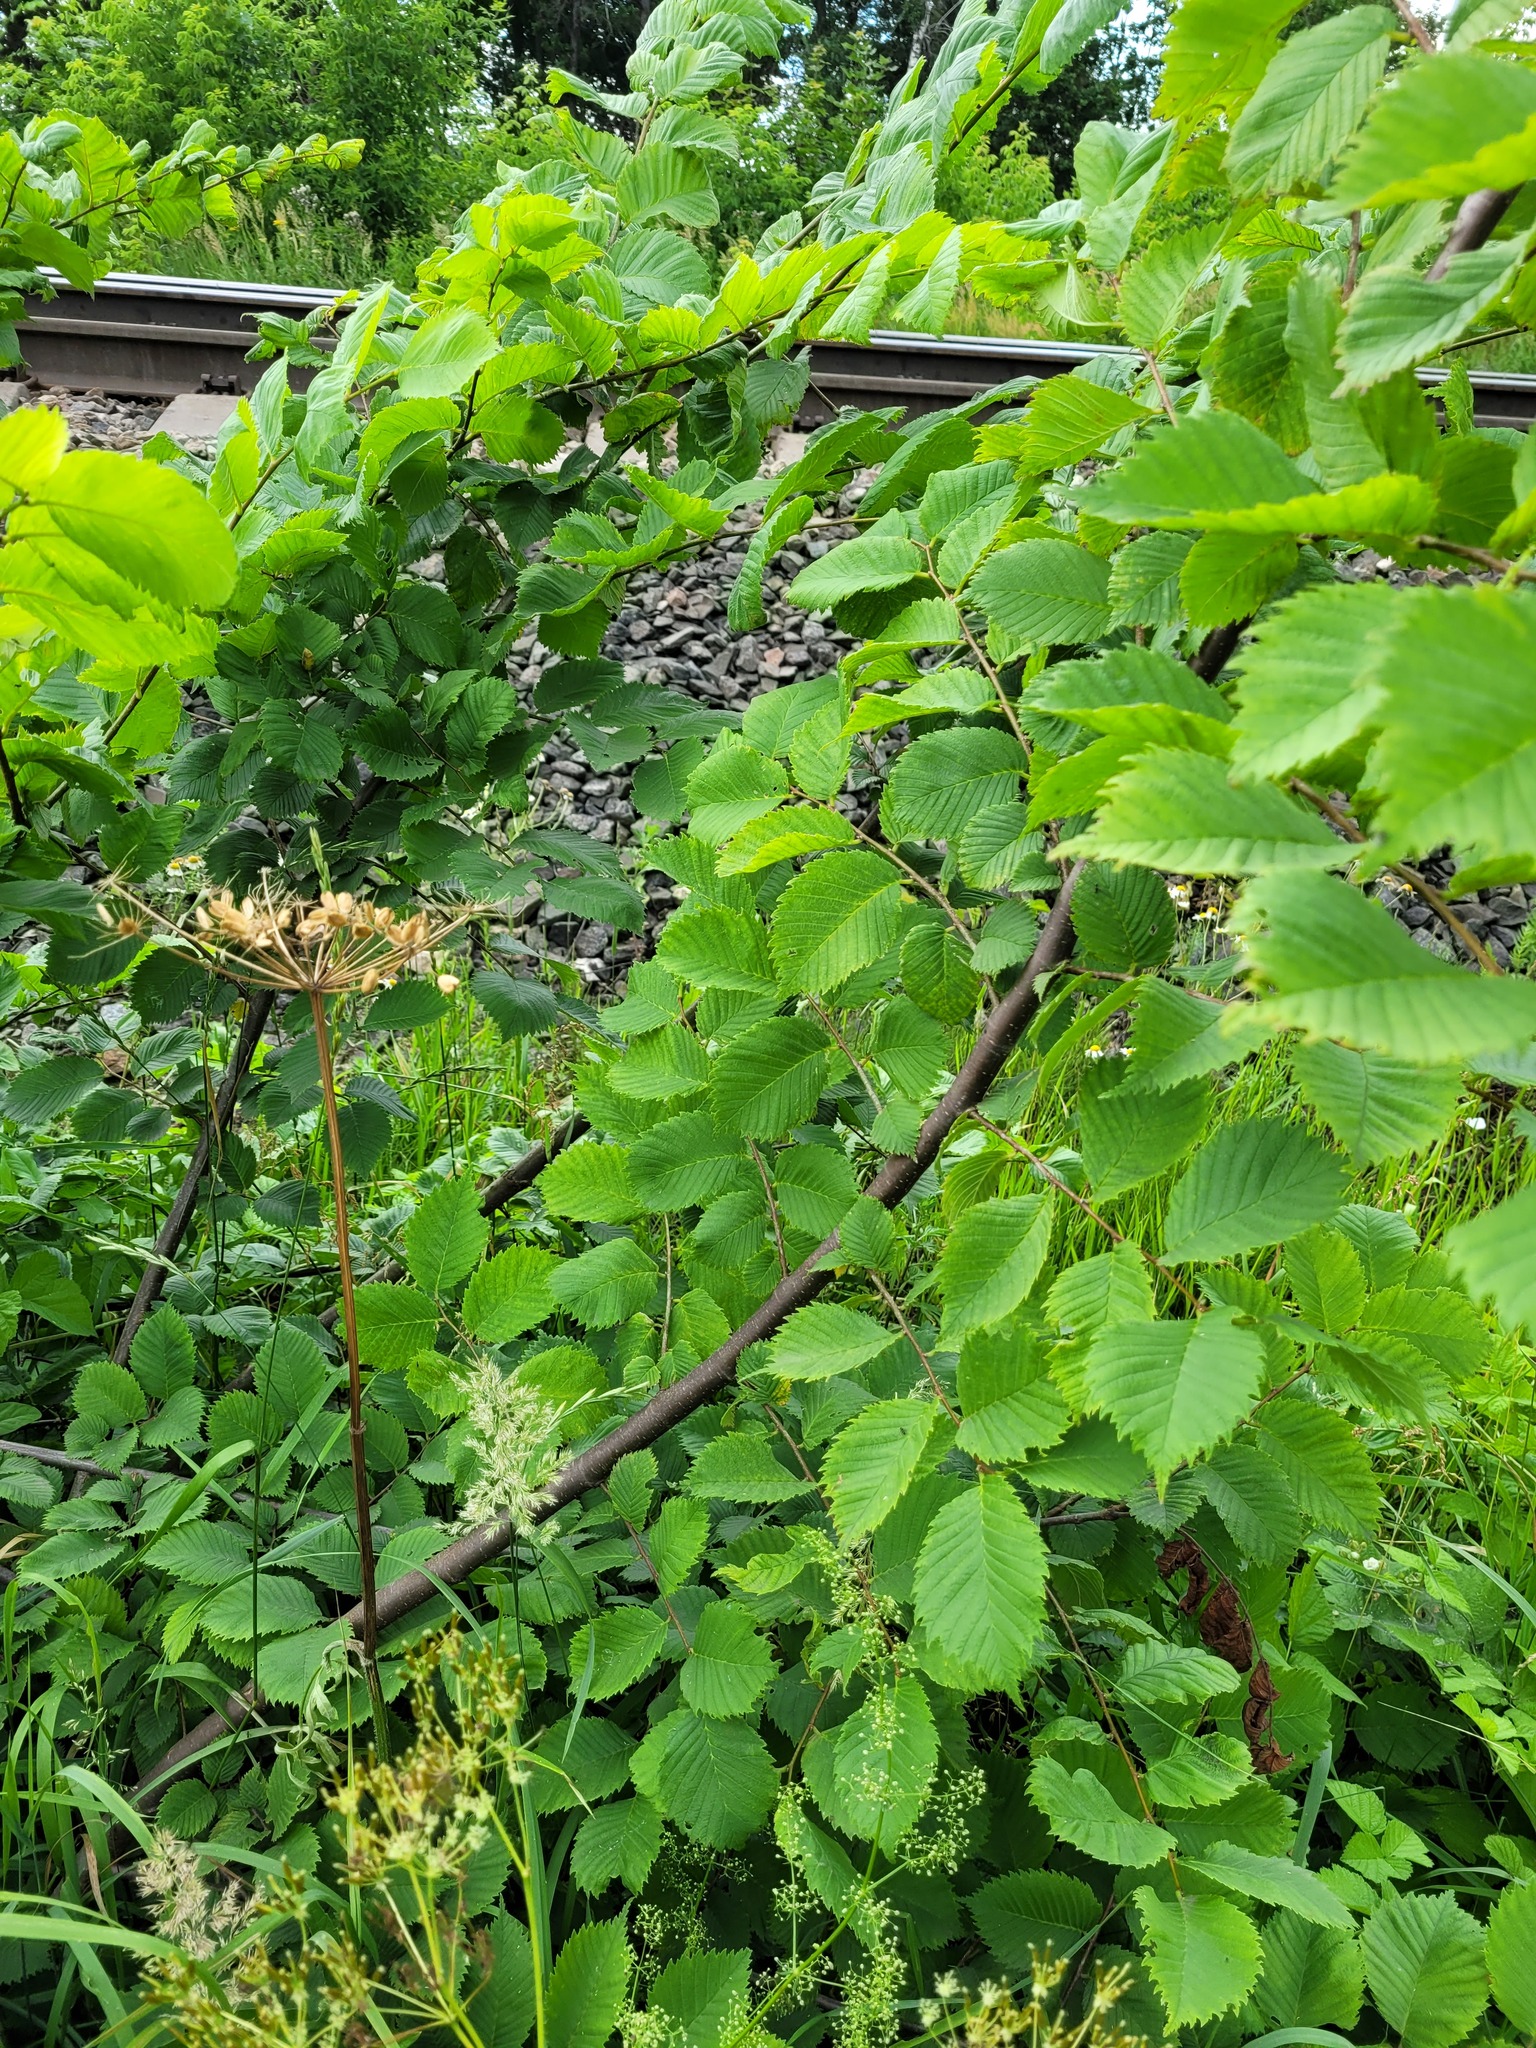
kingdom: Plantae
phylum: Tracheophyta
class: Magnoliopsida
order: Rosales
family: Ulmaceae
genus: Ulmus
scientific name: Ulmus laevis
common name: European white-elm
